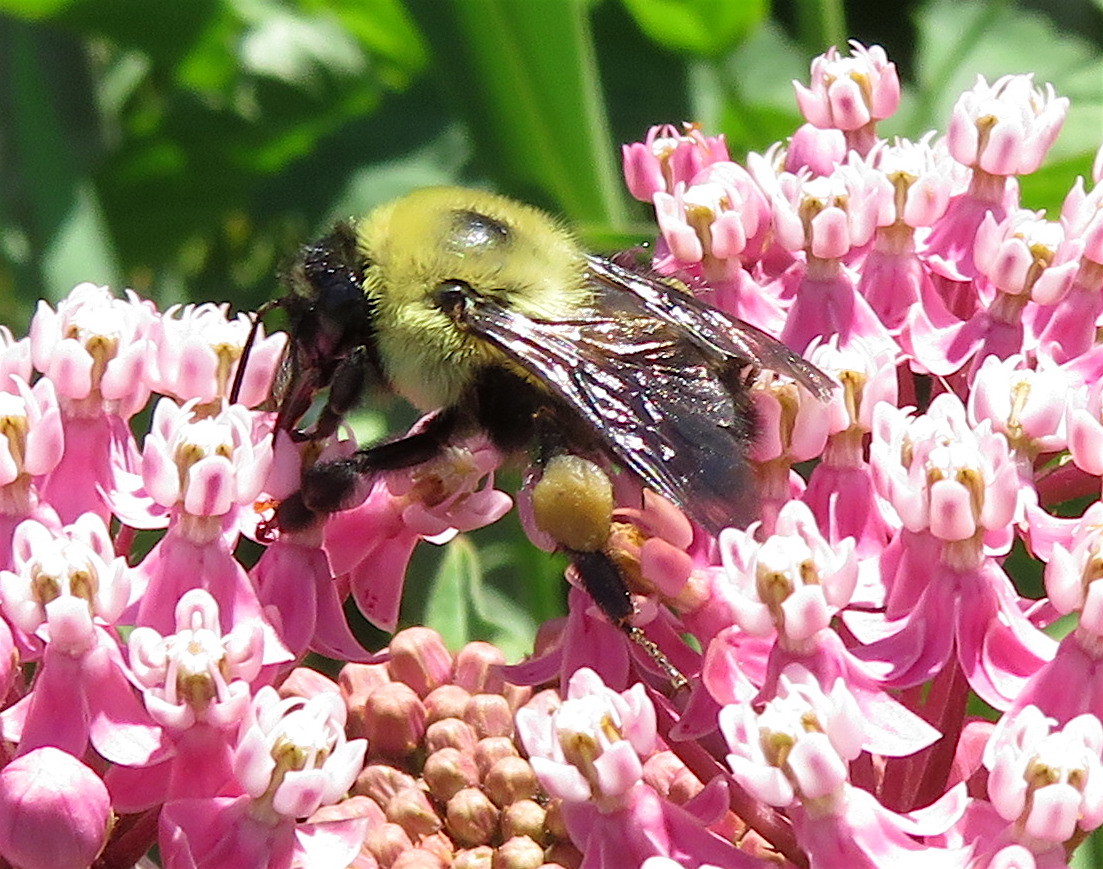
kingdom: Plantae
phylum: Tracheophyta
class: Magnoliopsida
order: Gentianales
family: Apocynaceae
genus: Asclepias
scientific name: Asclepias incarnata
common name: Swamp milkweed
